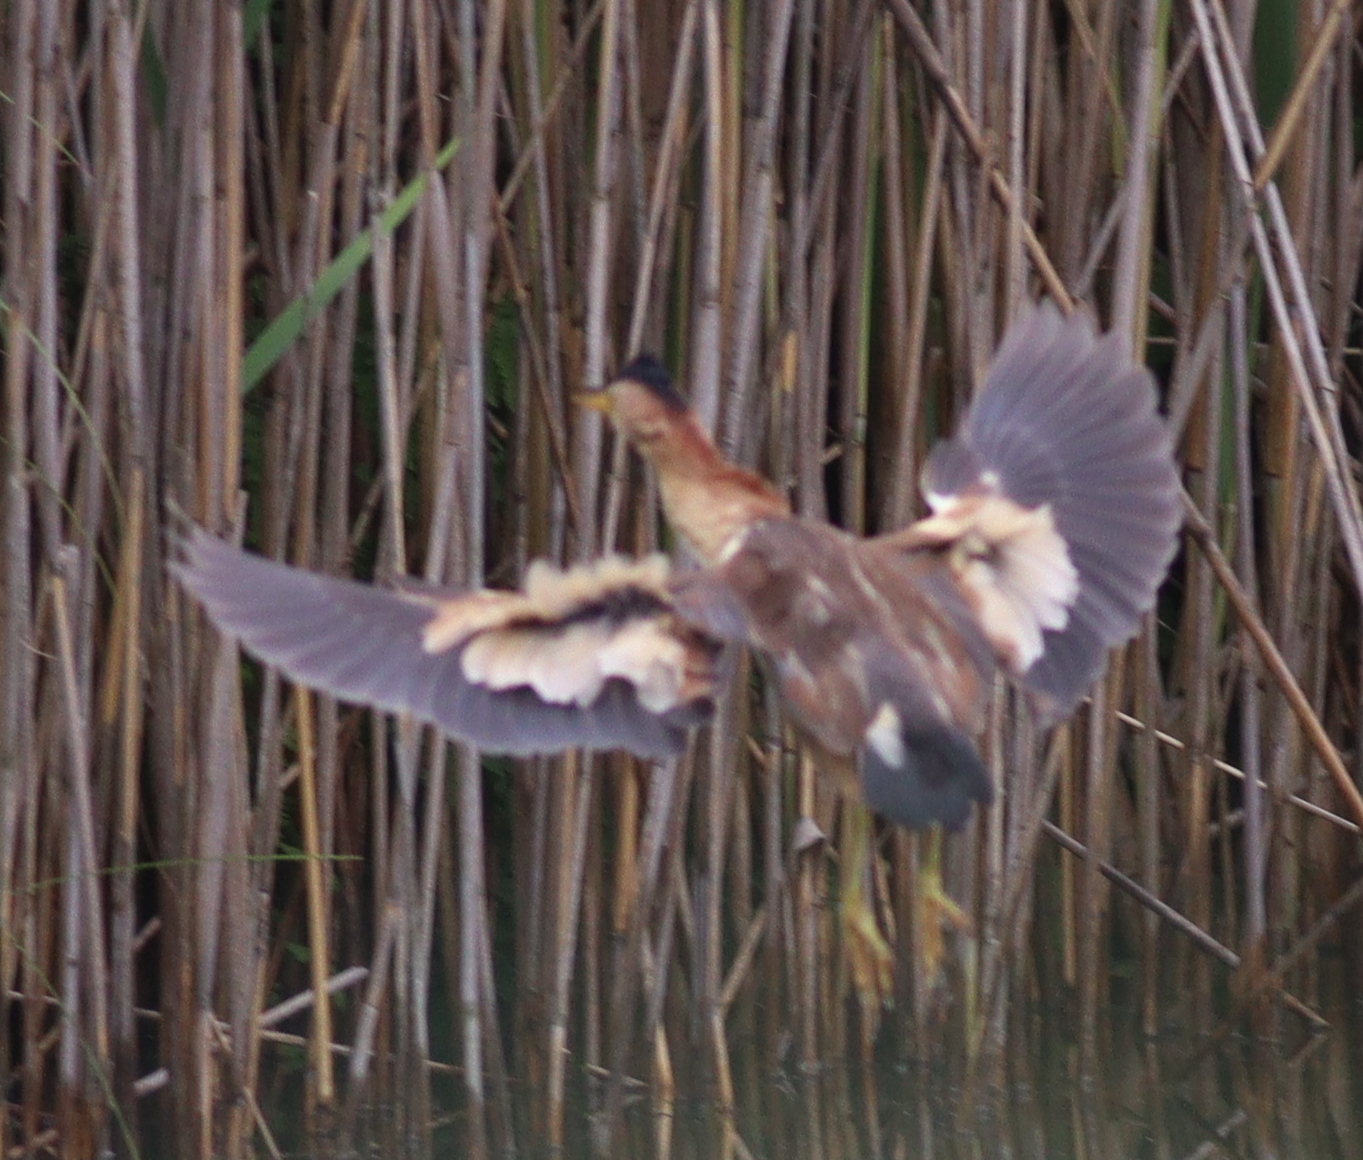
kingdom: Animalia
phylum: Chordata
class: Aves
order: Pelecaniformes
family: Ardeidae
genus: Ixobrychus
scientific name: Ixobrychus minutus
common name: Little bittern
